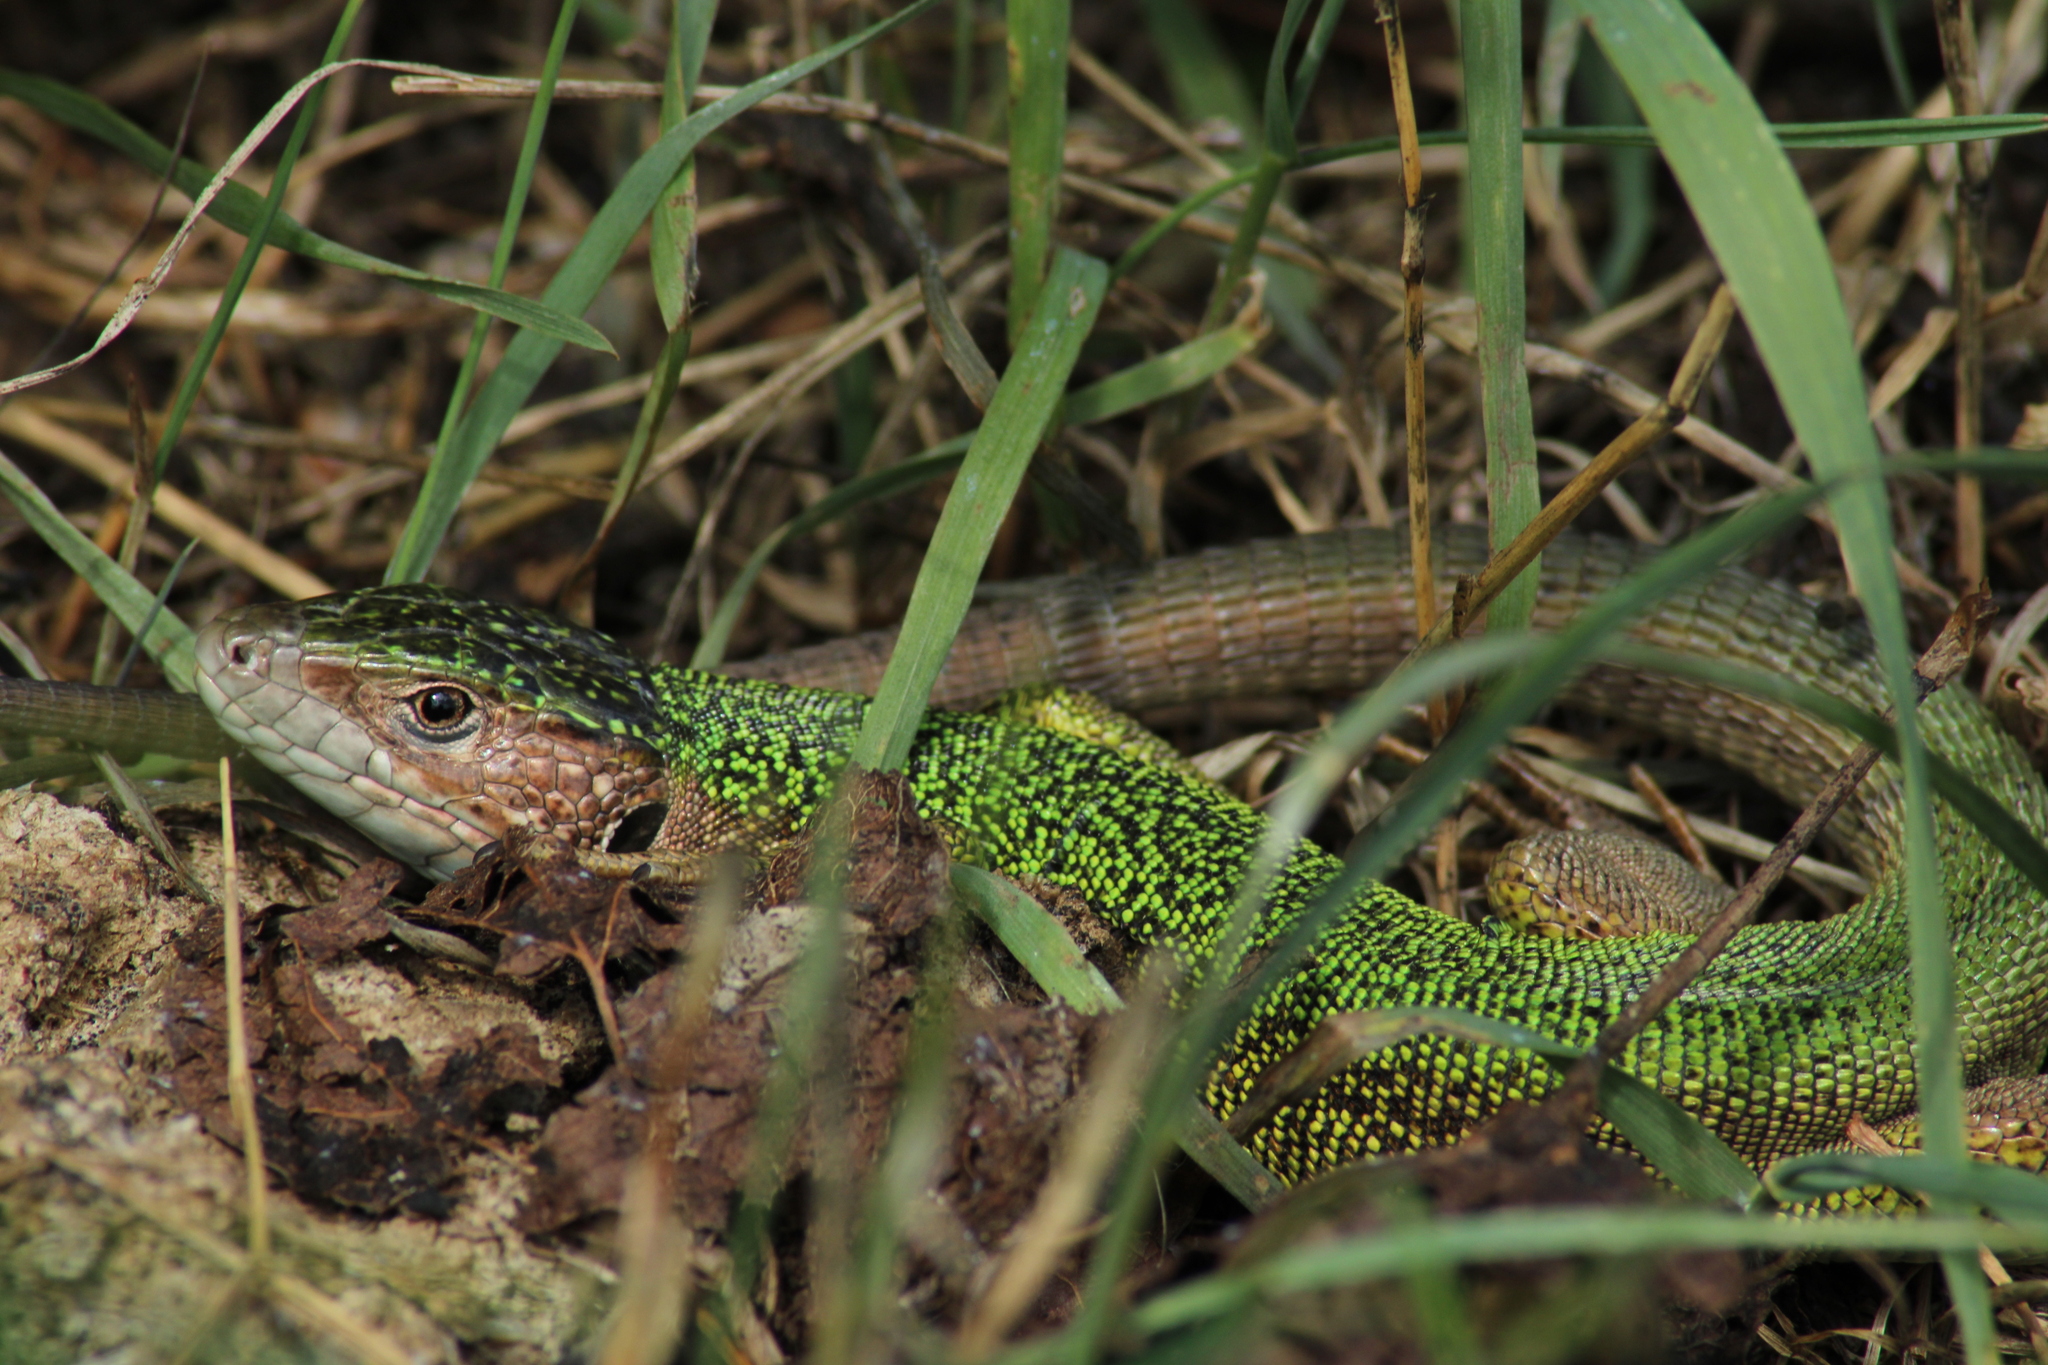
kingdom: Animalia
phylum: Chordata
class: Squamata
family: Lacertidae
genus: Lacerta
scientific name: Lacerta viridis
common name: European green lizard
